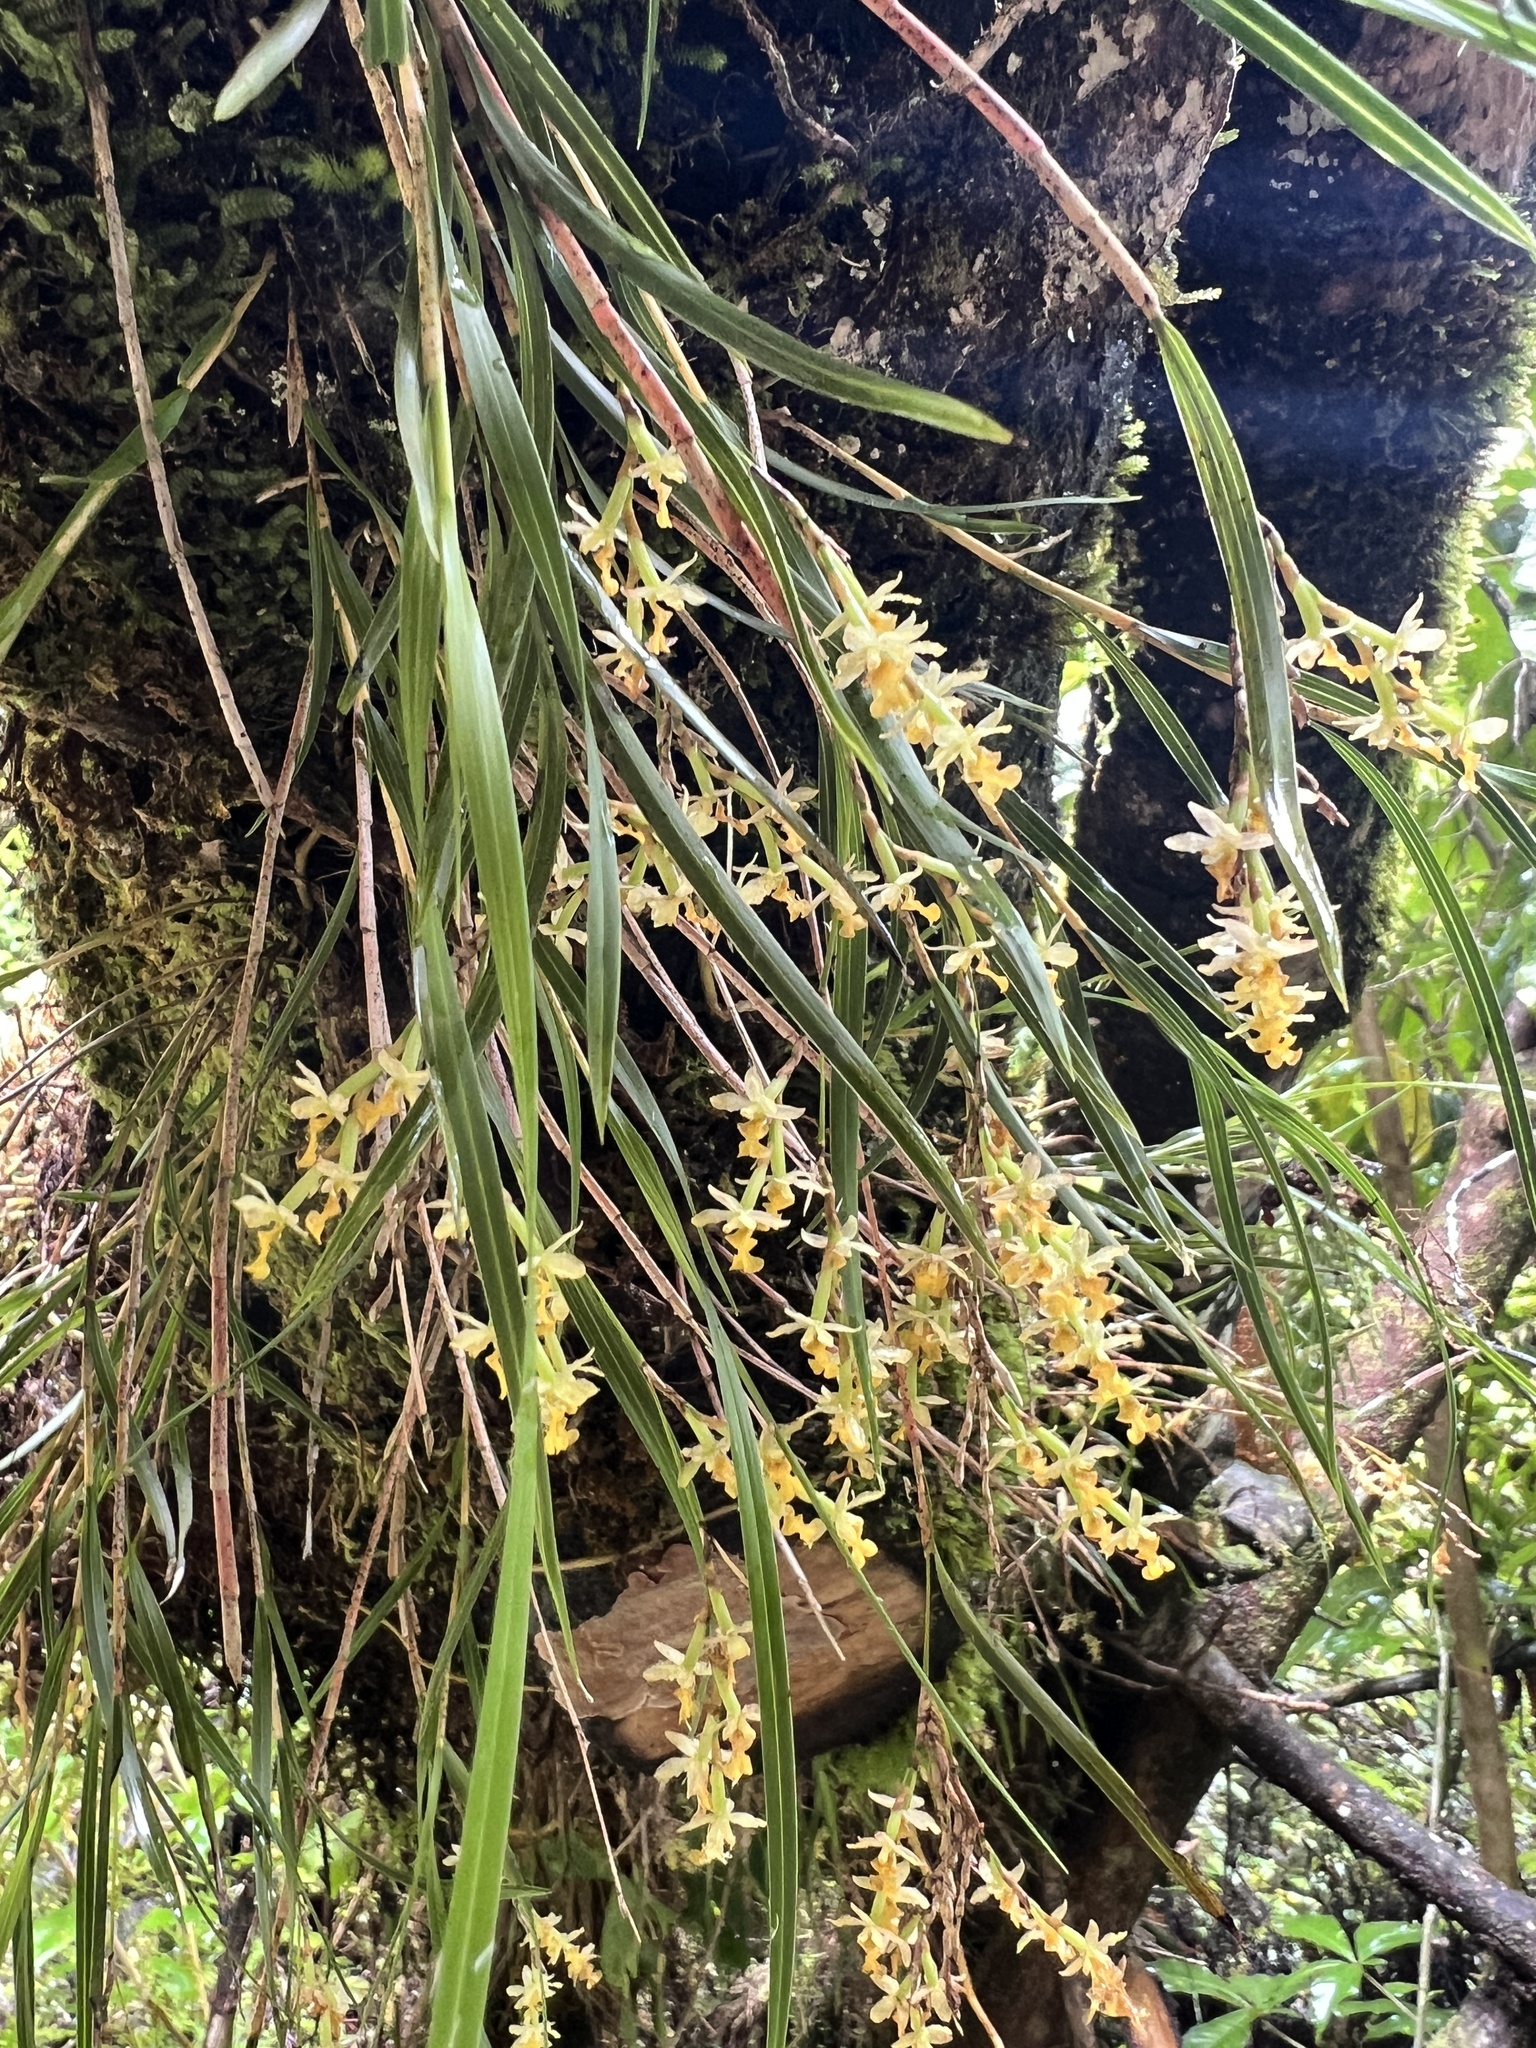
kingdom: Plantae
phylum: Tracheophyta
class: Liliopsida
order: Asparagales
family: Orchidaceae
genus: Earina
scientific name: Earina mucronata
